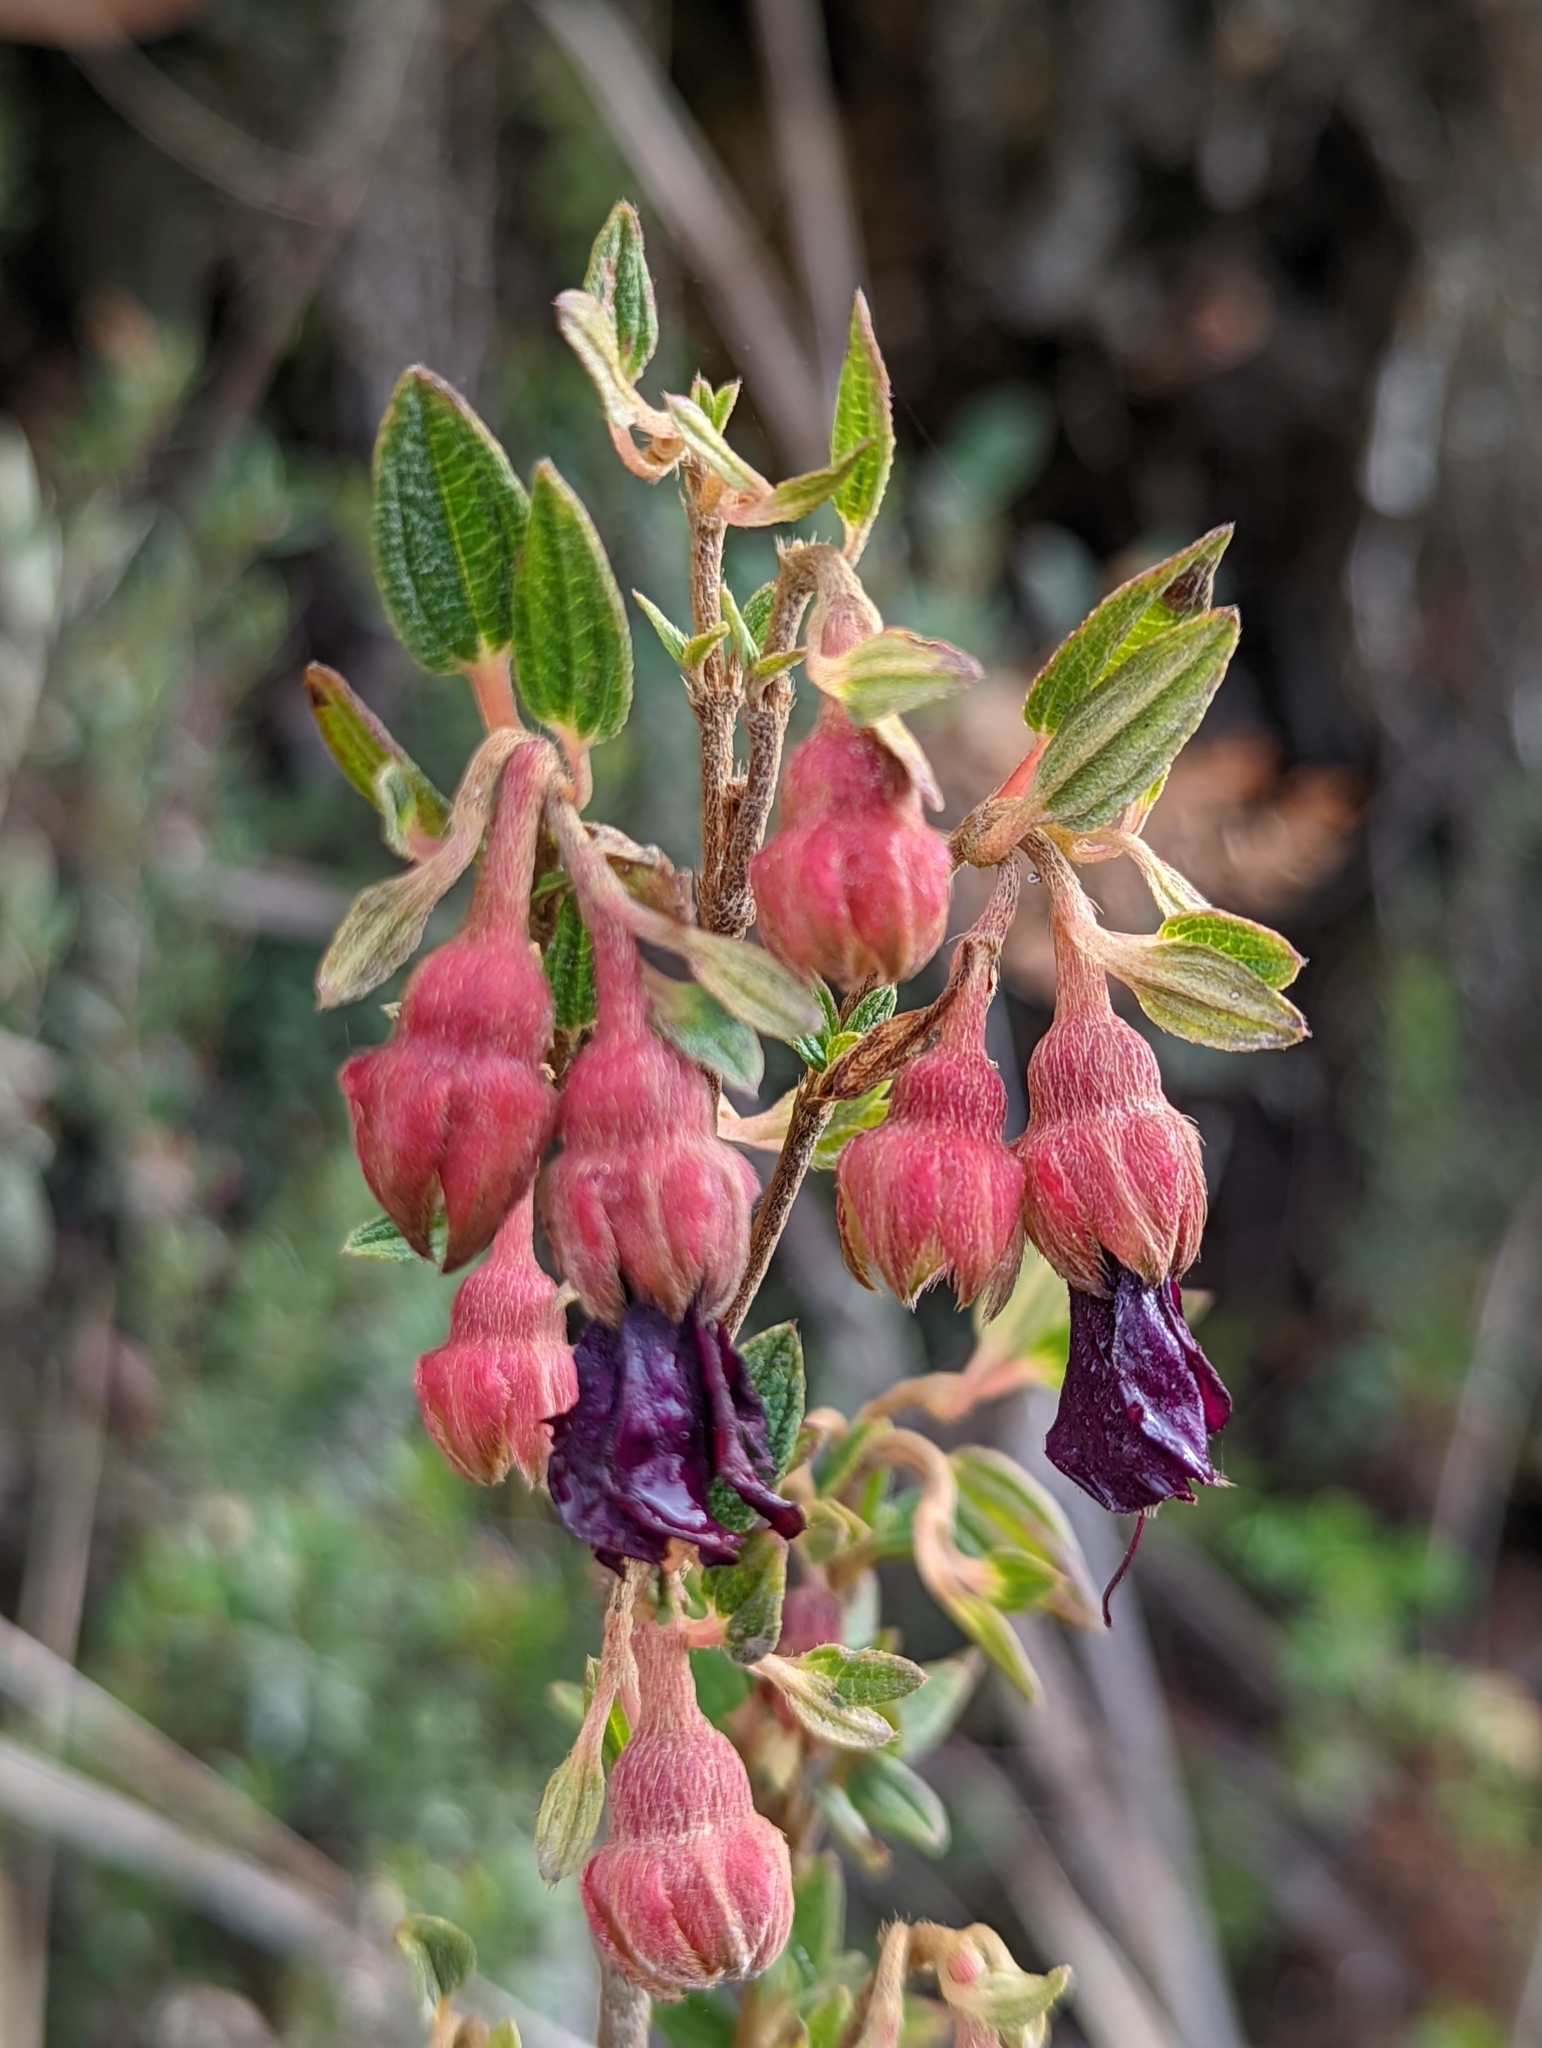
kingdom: Plantae
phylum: Tracheophyta
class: Magnoliopsida
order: Myrtales
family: Melastomataceae
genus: Brachyotum
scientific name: Brachyotum strigosum
